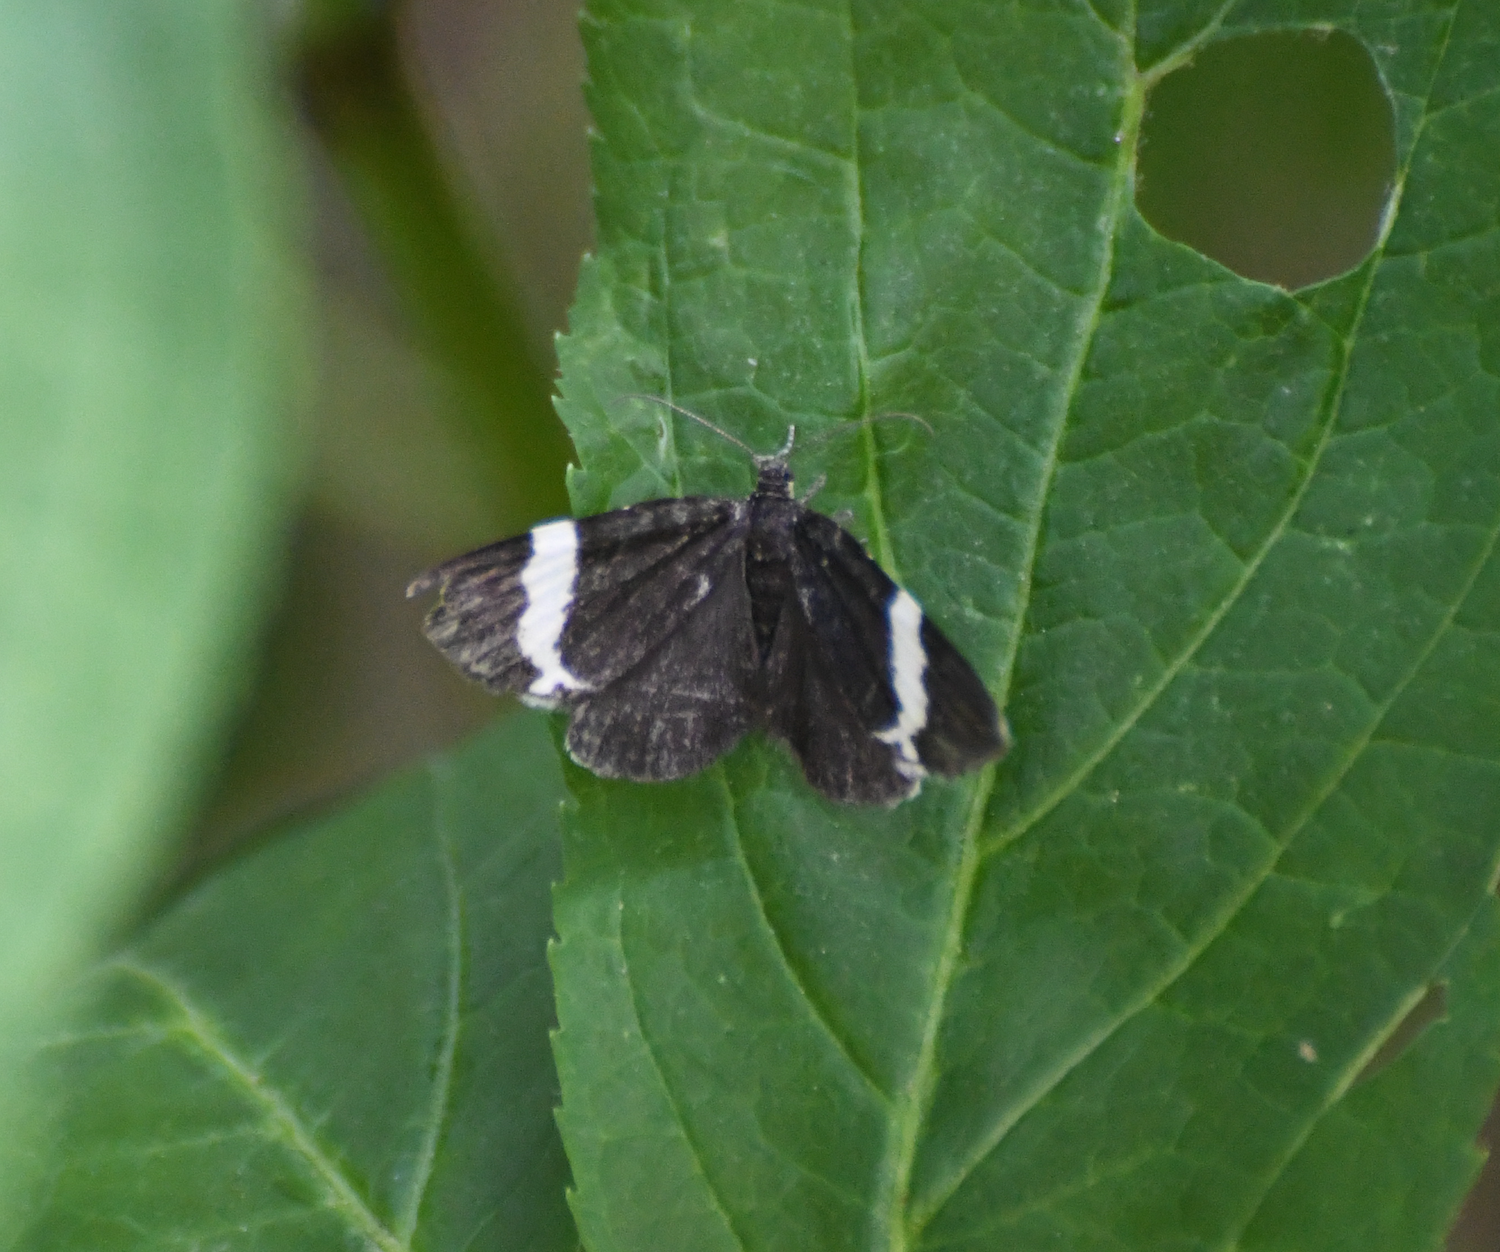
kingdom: Animalia
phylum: Arthropoda
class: Insecta
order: Lepidoptera
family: Geometridae
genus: Trichodezia
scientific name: Trichodezia albovittata
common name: White striped black
